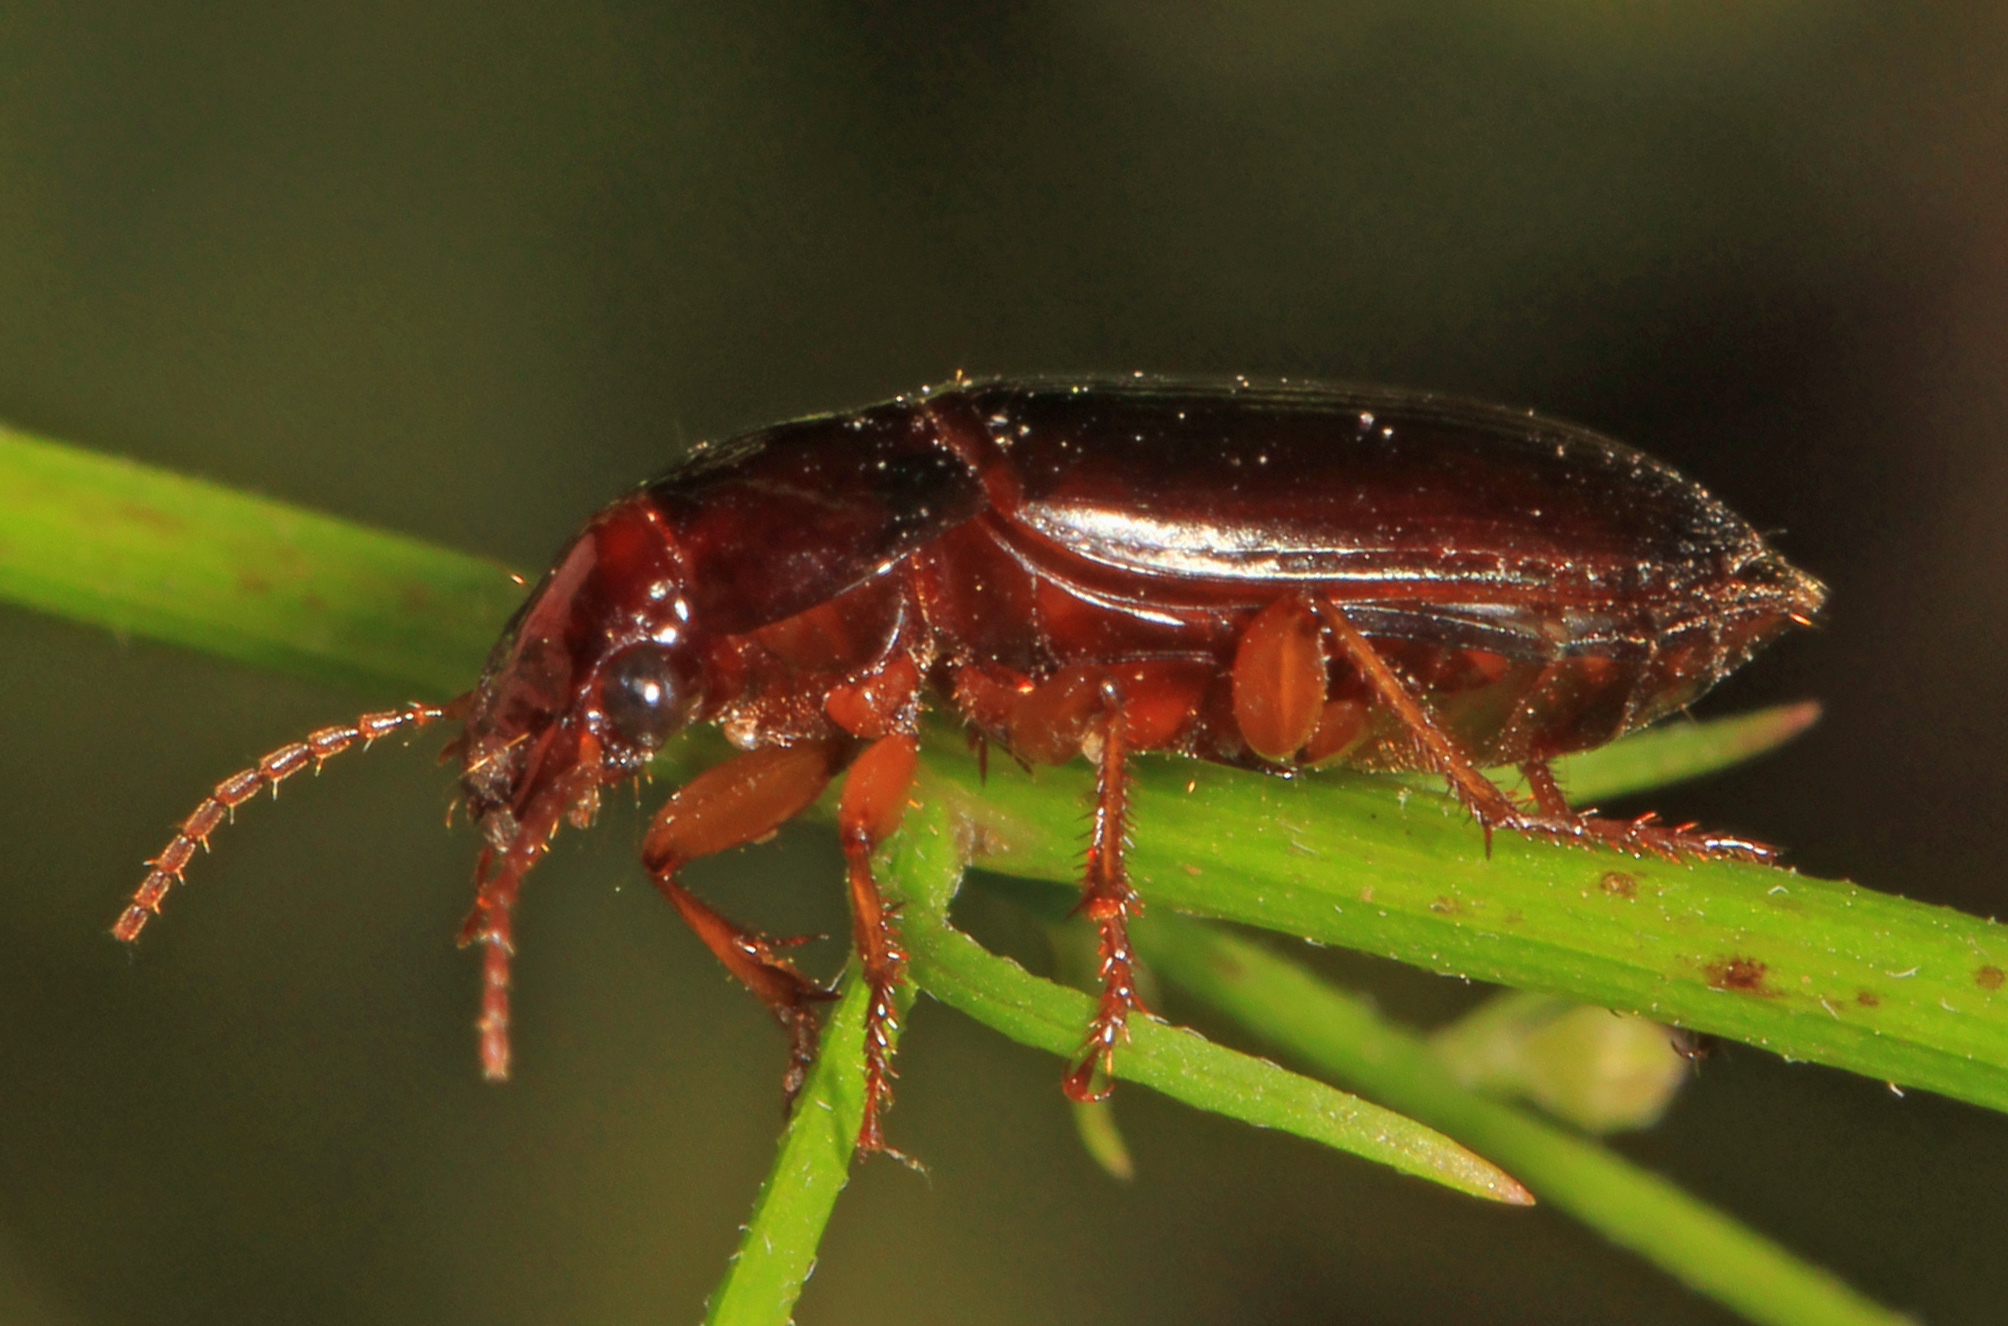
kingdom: Animalia
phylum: Arthropoda
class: Insecta
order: Coleoptera
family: Carabidae
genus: Notiobia
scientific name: Notiobia nitidipennis
